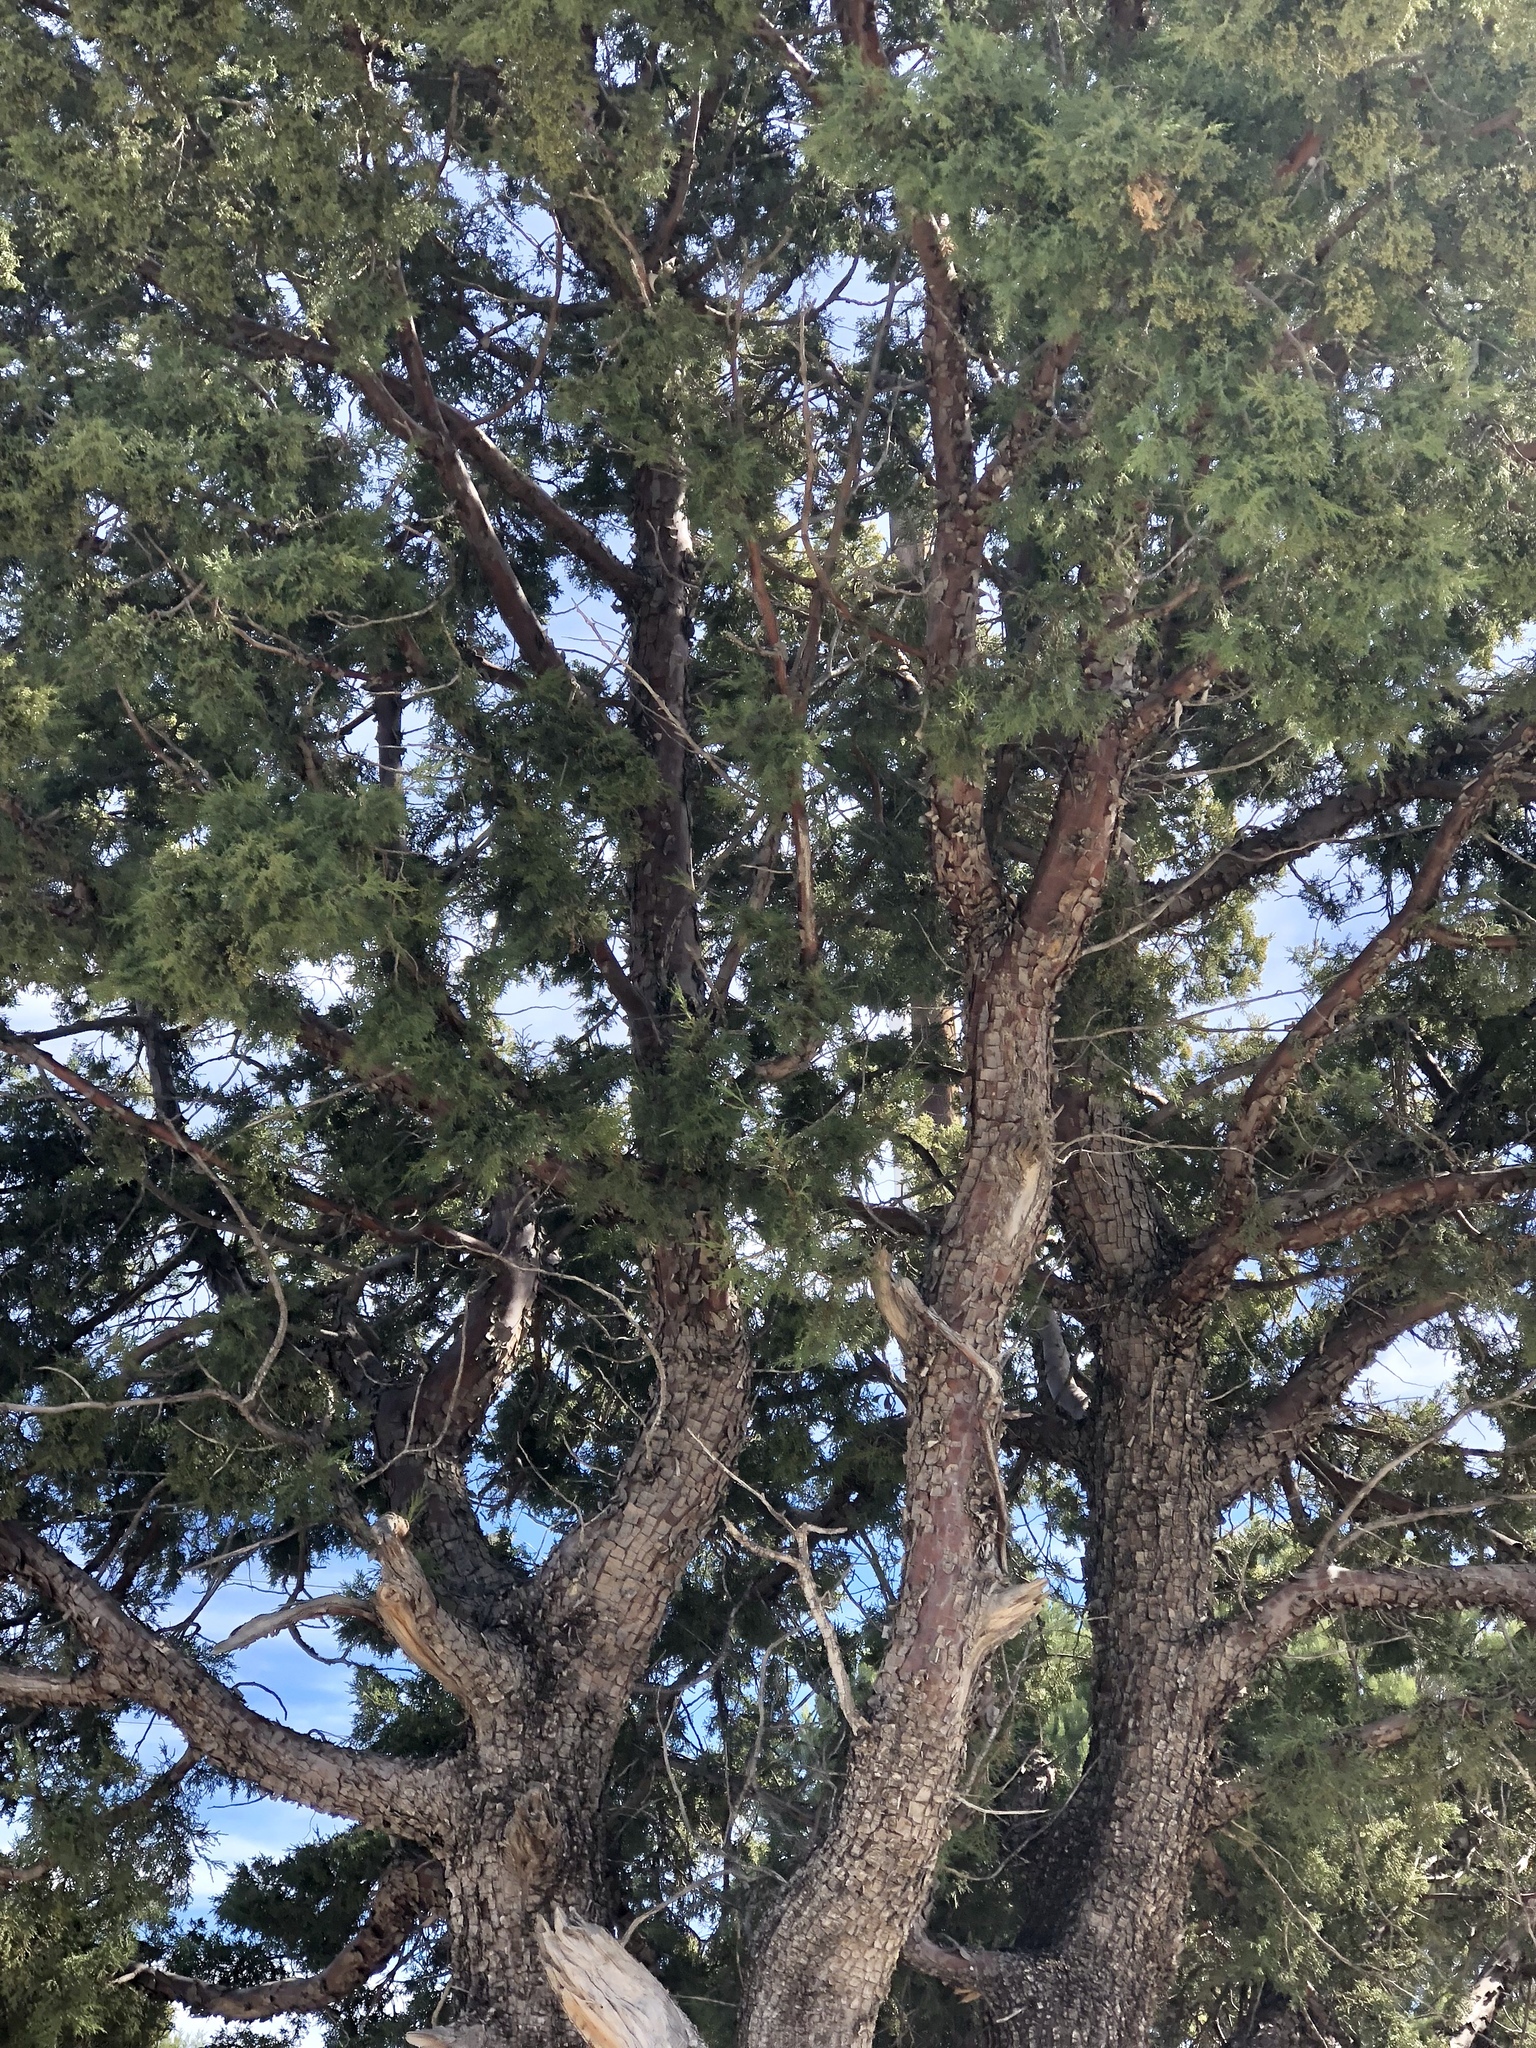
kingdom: Plantae
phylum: Tracheophyta
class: Pinopsida
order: Pinales
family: Cupressaceae
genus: Juniperus
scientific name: Juniperus deppeana
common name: Alligator juniper
